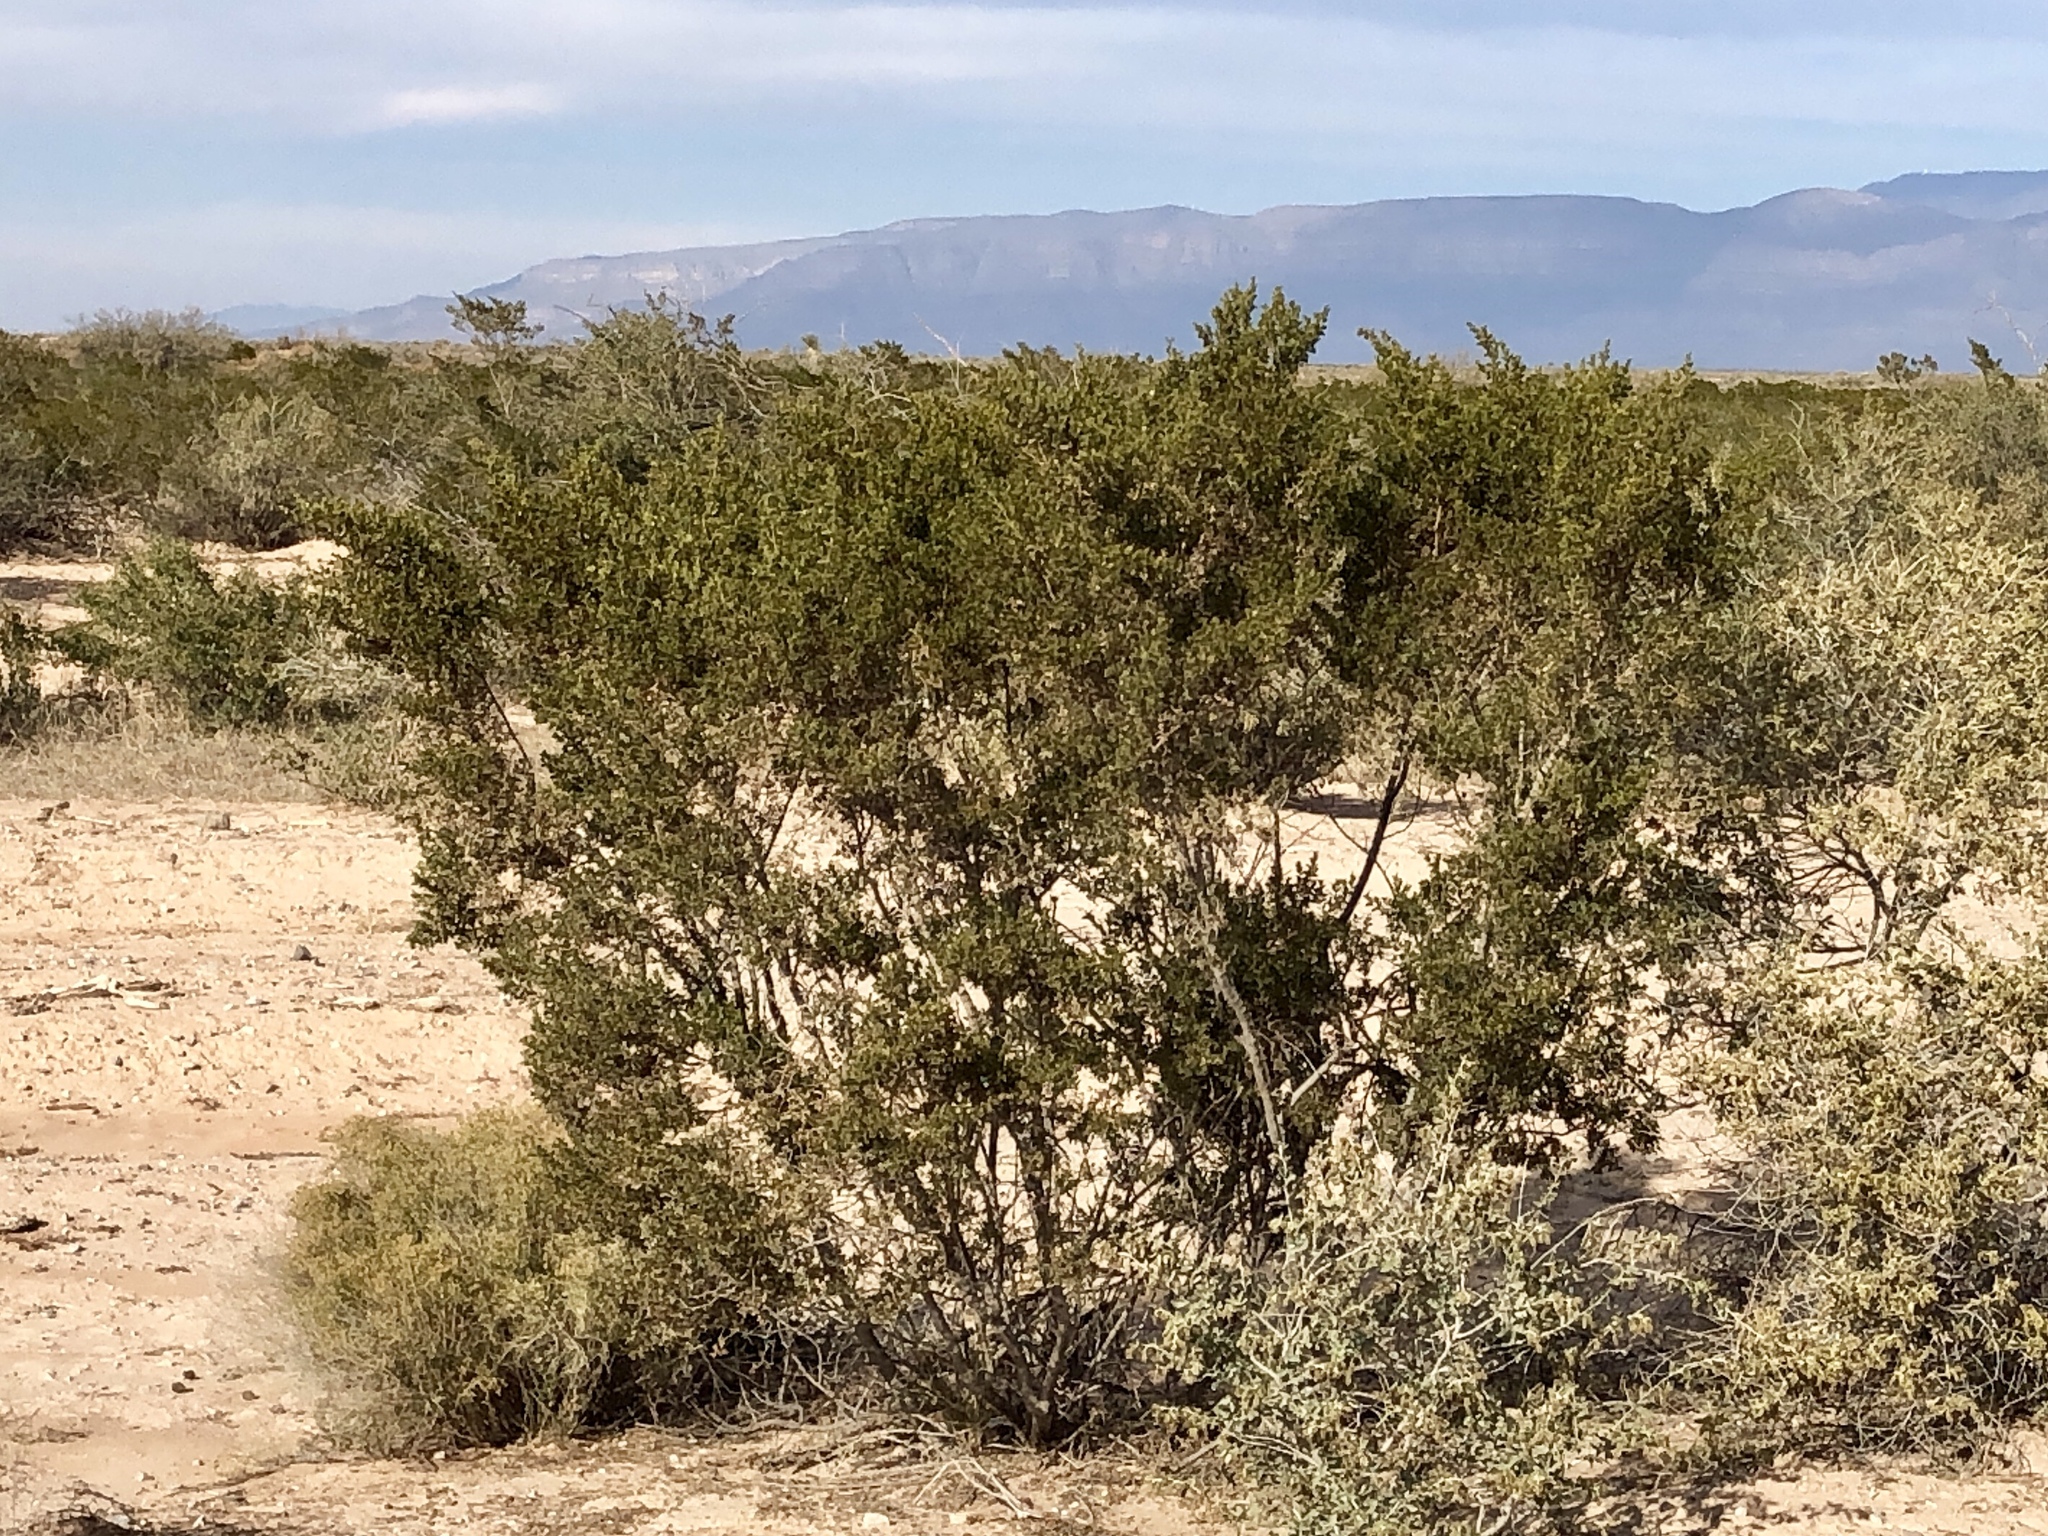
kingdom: Plantae
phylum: Tracheophyta
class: Magnoliopsida
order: Zygophyllales
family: Zygophyllaceae
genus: Larrea
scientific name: Larrea tridentata
